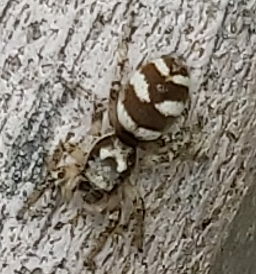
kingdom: Animalia
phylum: Arthropoda
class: Arachnida
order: Araneae
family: Salticidae
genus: Salticus
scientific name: Salticus scenicus
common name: Zebra jumper
